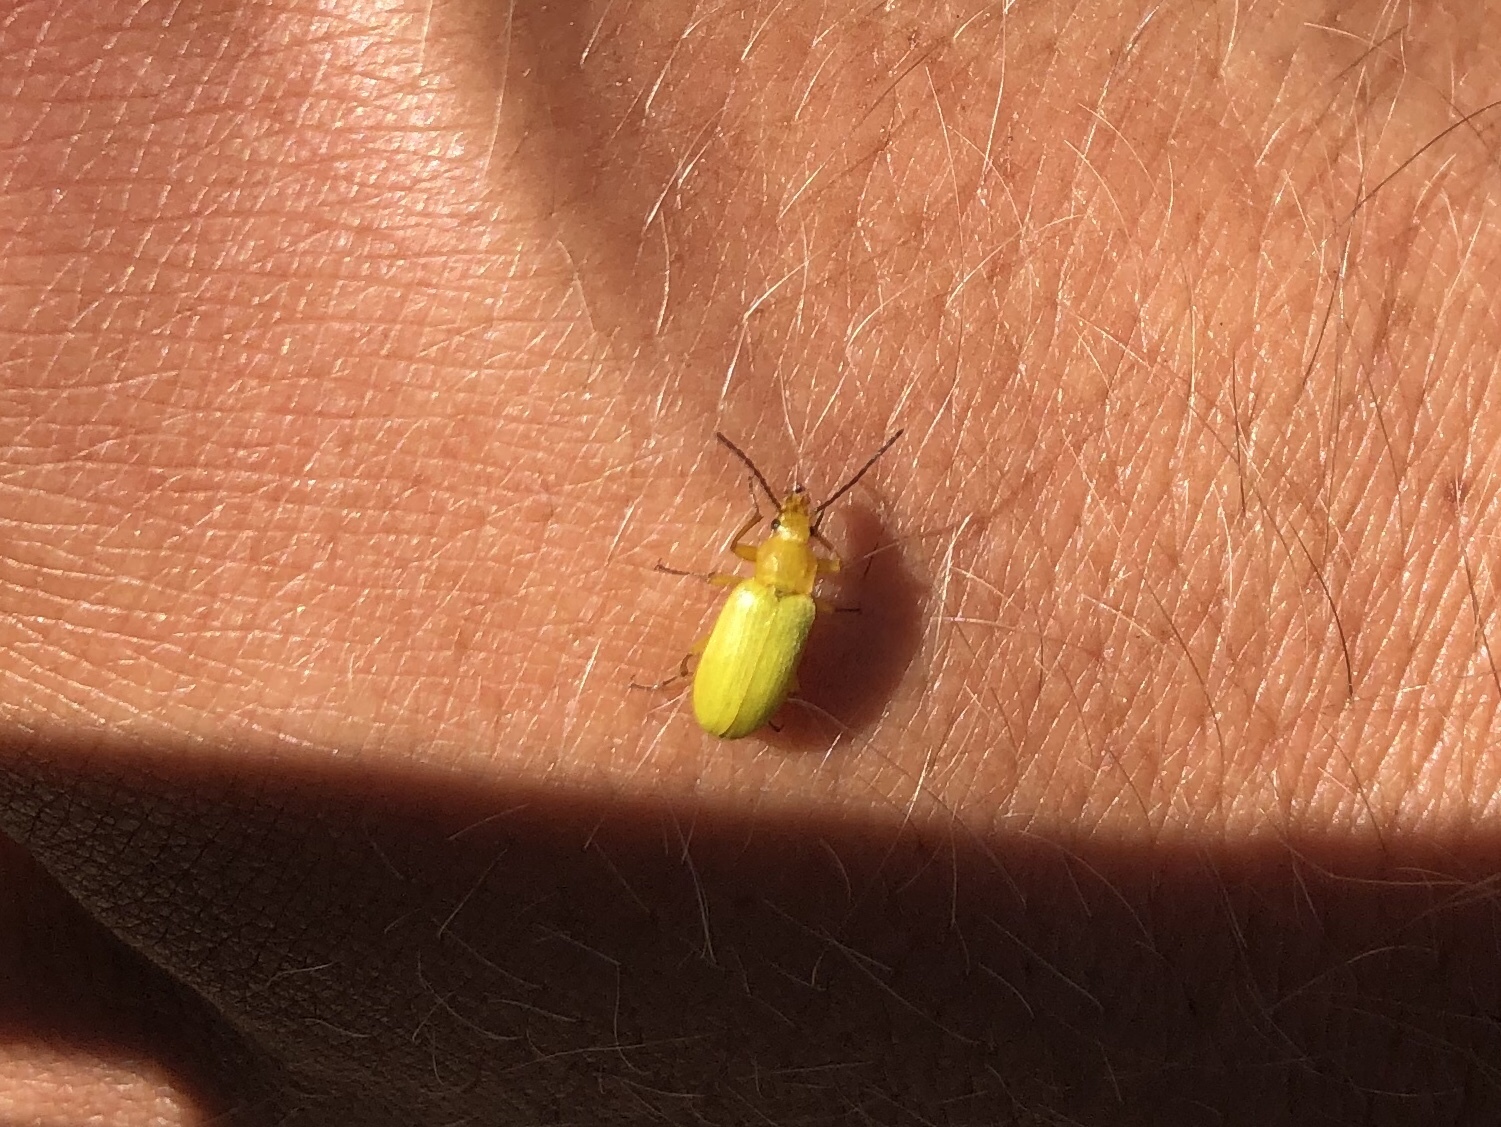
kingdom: Animalia
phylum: Arthropoda
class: Insecta
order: Coleoptera
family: Tenebrionidae
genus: Cteniopus
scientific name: Cteniopus sulphureus
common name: Sulphur beetle
